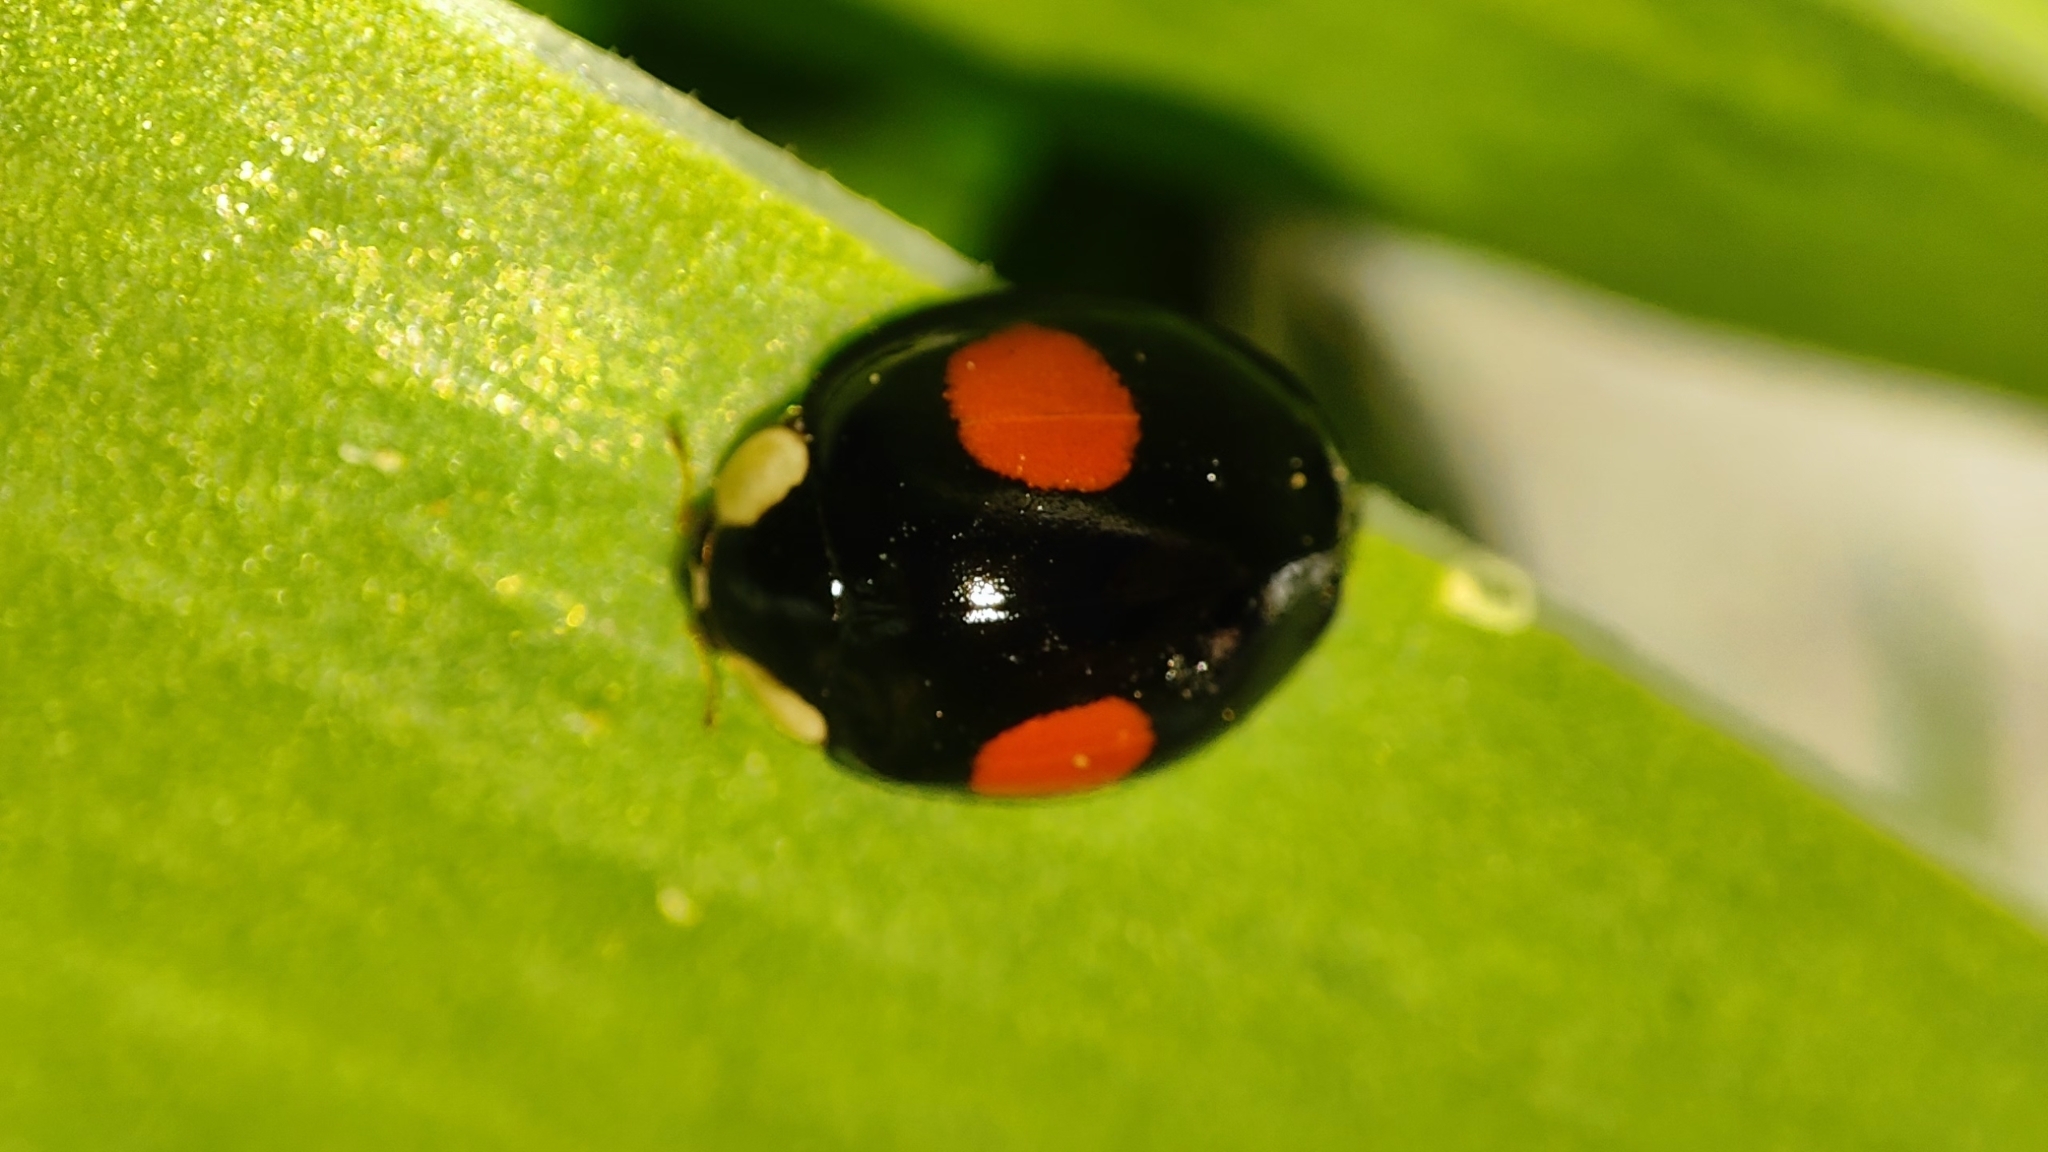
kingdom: Animalia
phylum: Arthropoda
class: Insecta
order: Coleoptera
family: Coccinellidae
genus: Harmonia
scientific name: Harmonia axyridis
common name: Harlequin ladybird
